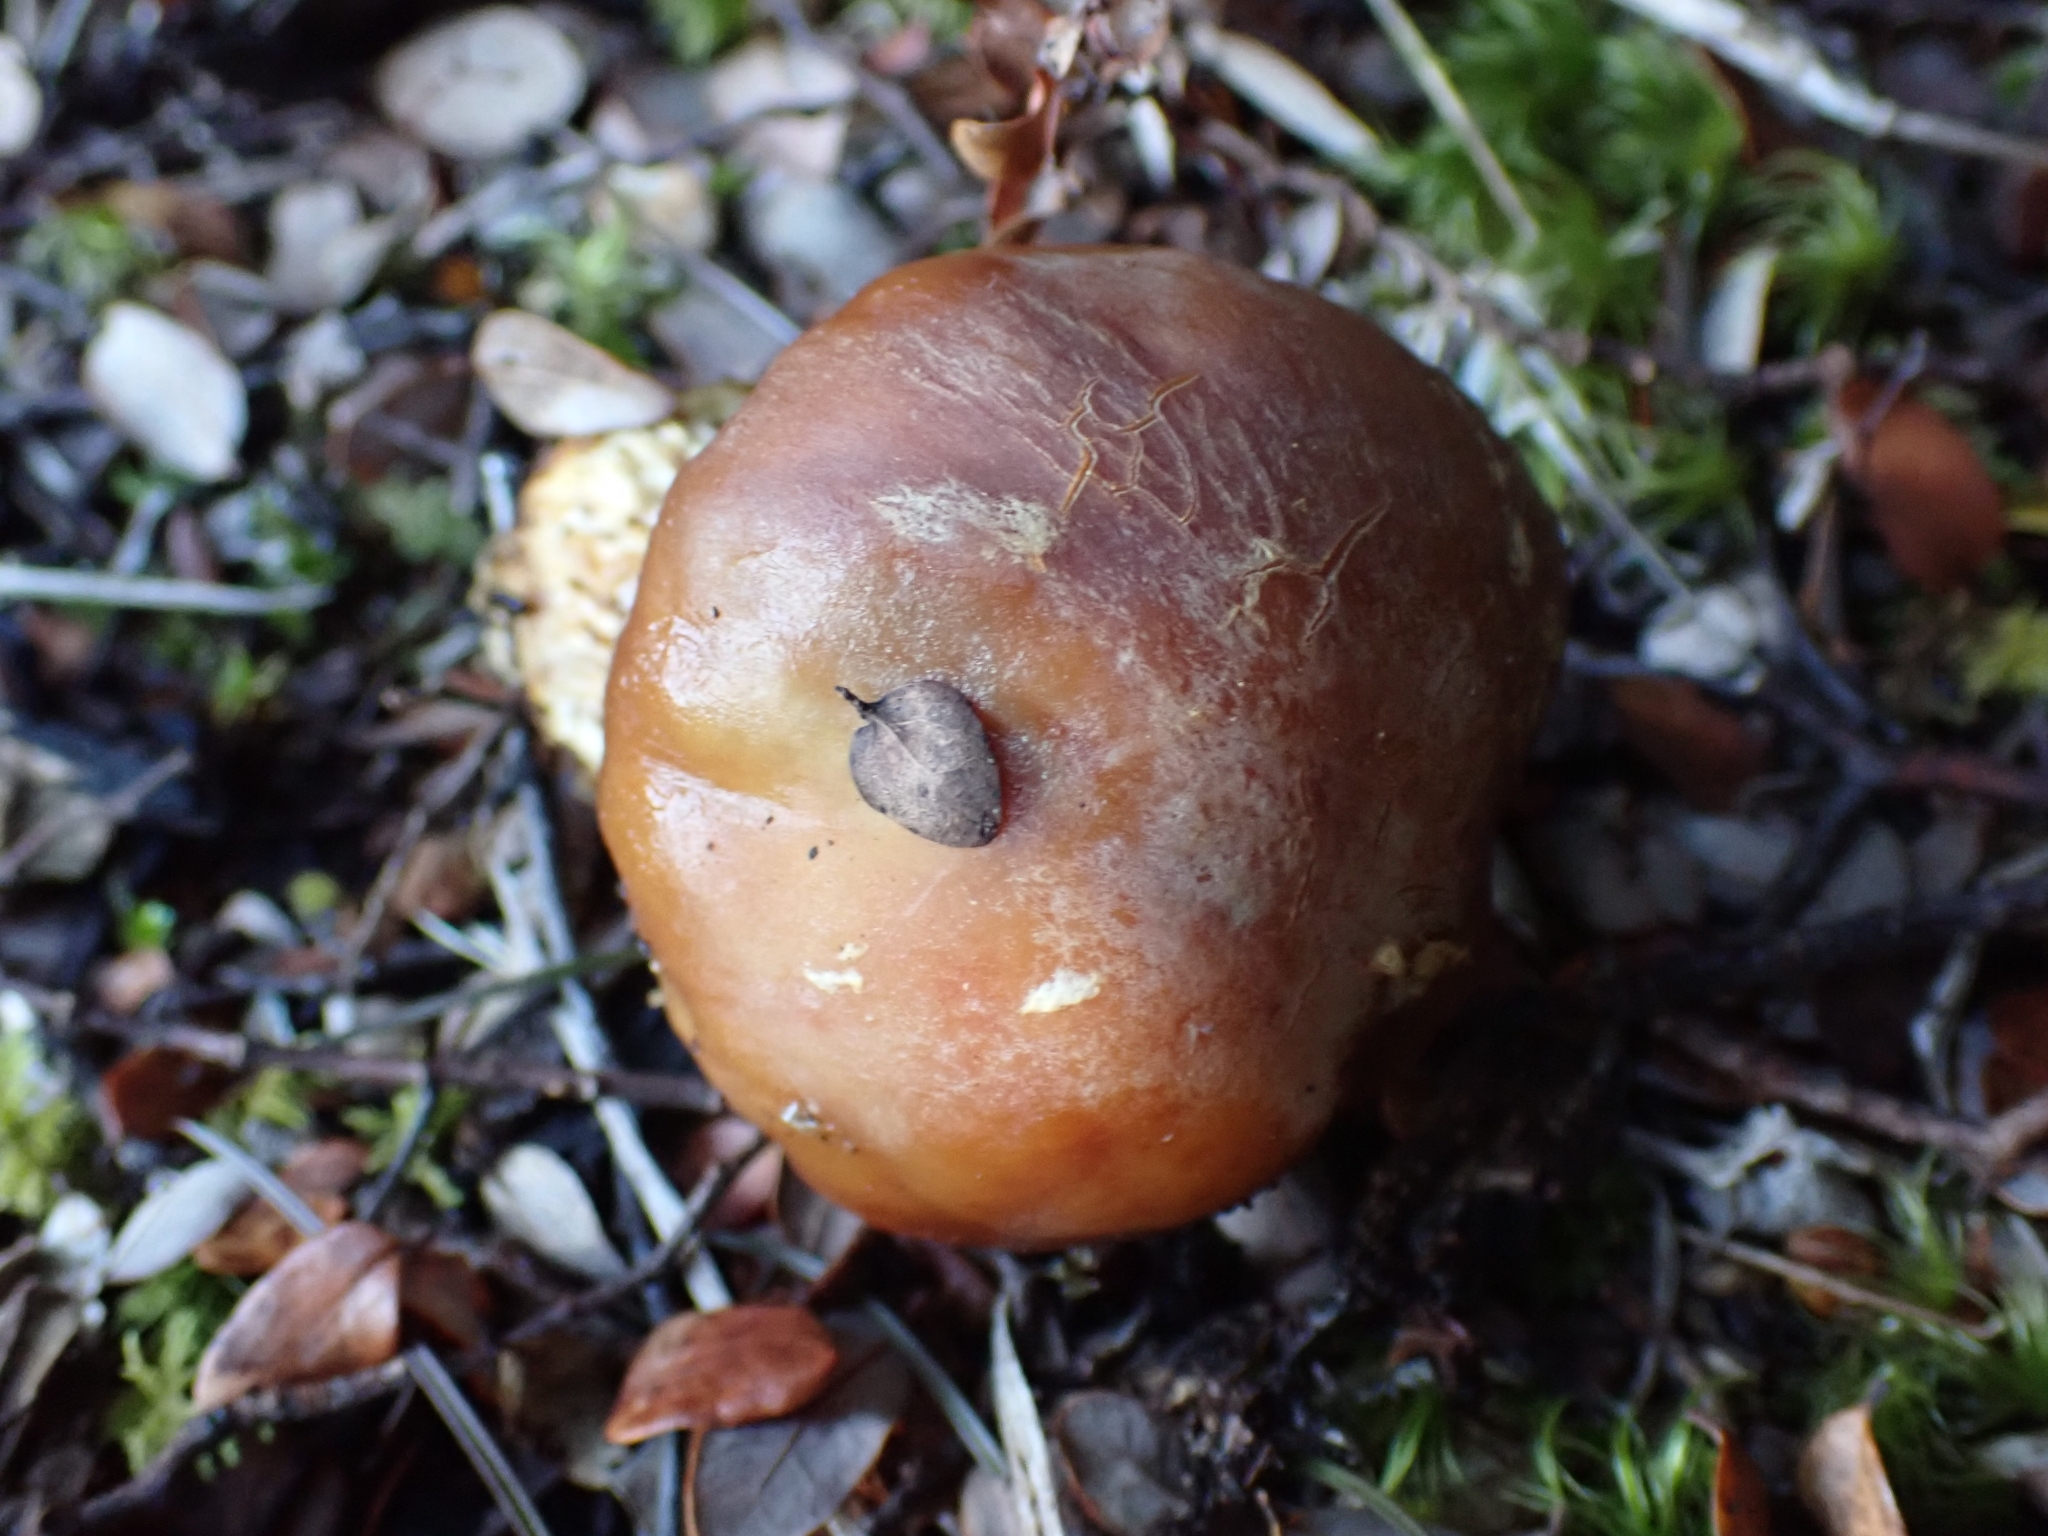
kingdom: Fungi
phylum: Basidiomycota
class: Agaricomycetes
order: Agaricales
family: Cortinariaceae
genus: Cortinarius
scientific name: Cortinarius epiphaeus
